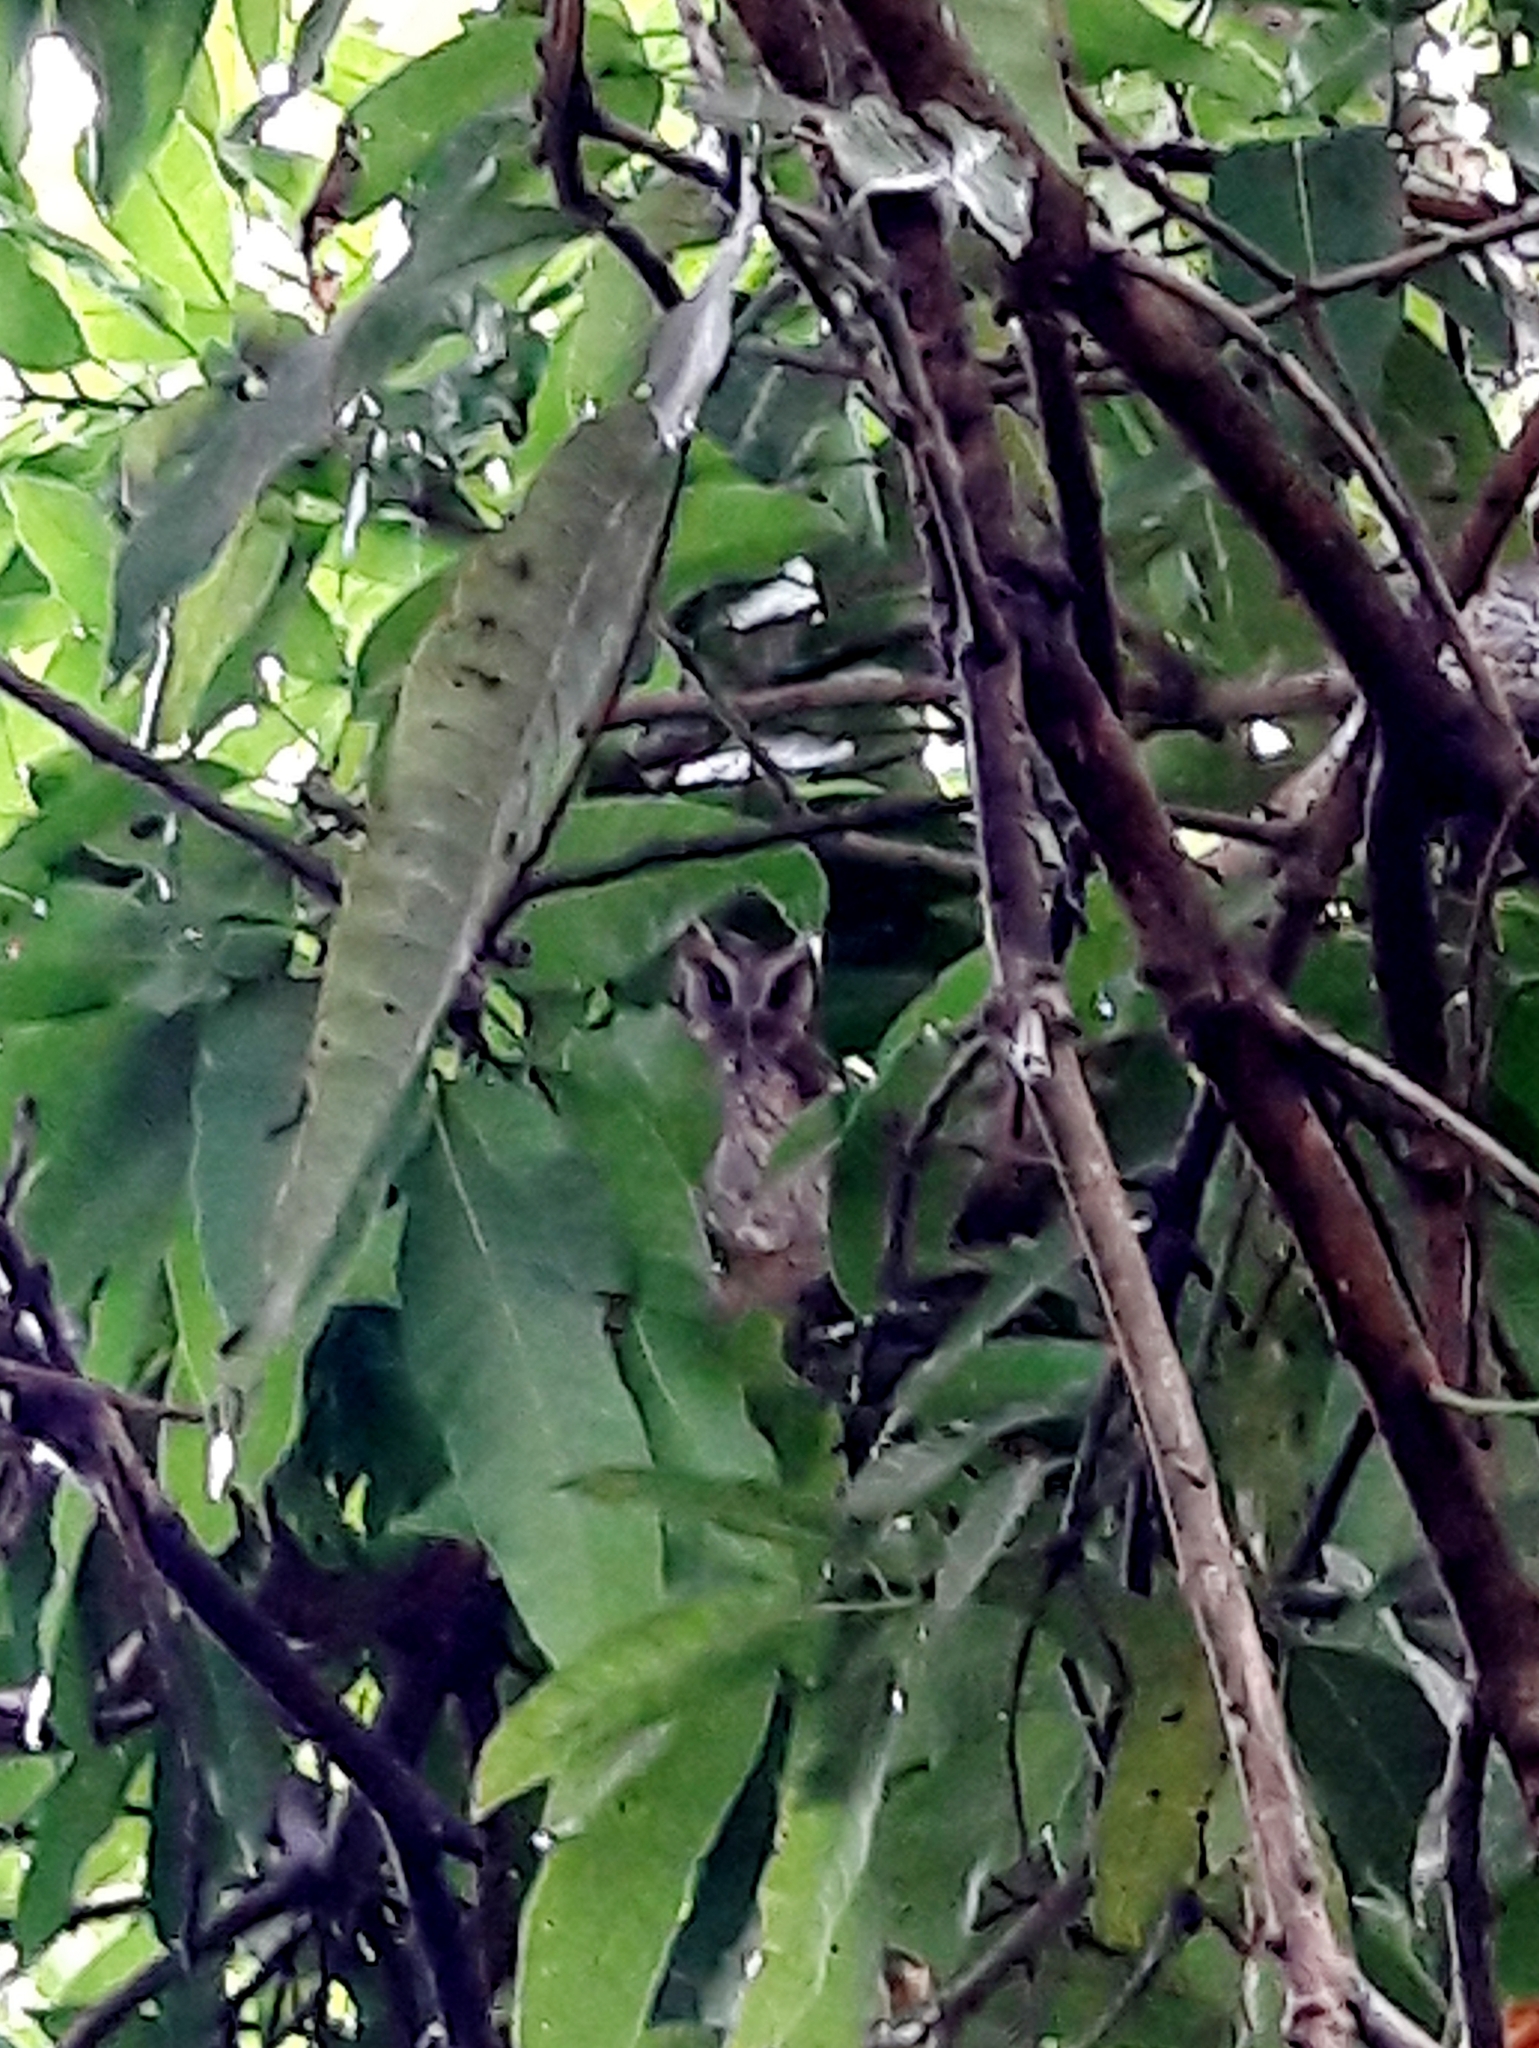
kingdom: Animalia
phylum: Chordata
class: Aves
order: Strigiformes
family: Strigidae
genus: Megascops
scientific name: Megascops choliba
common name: Tropical screech-owl
